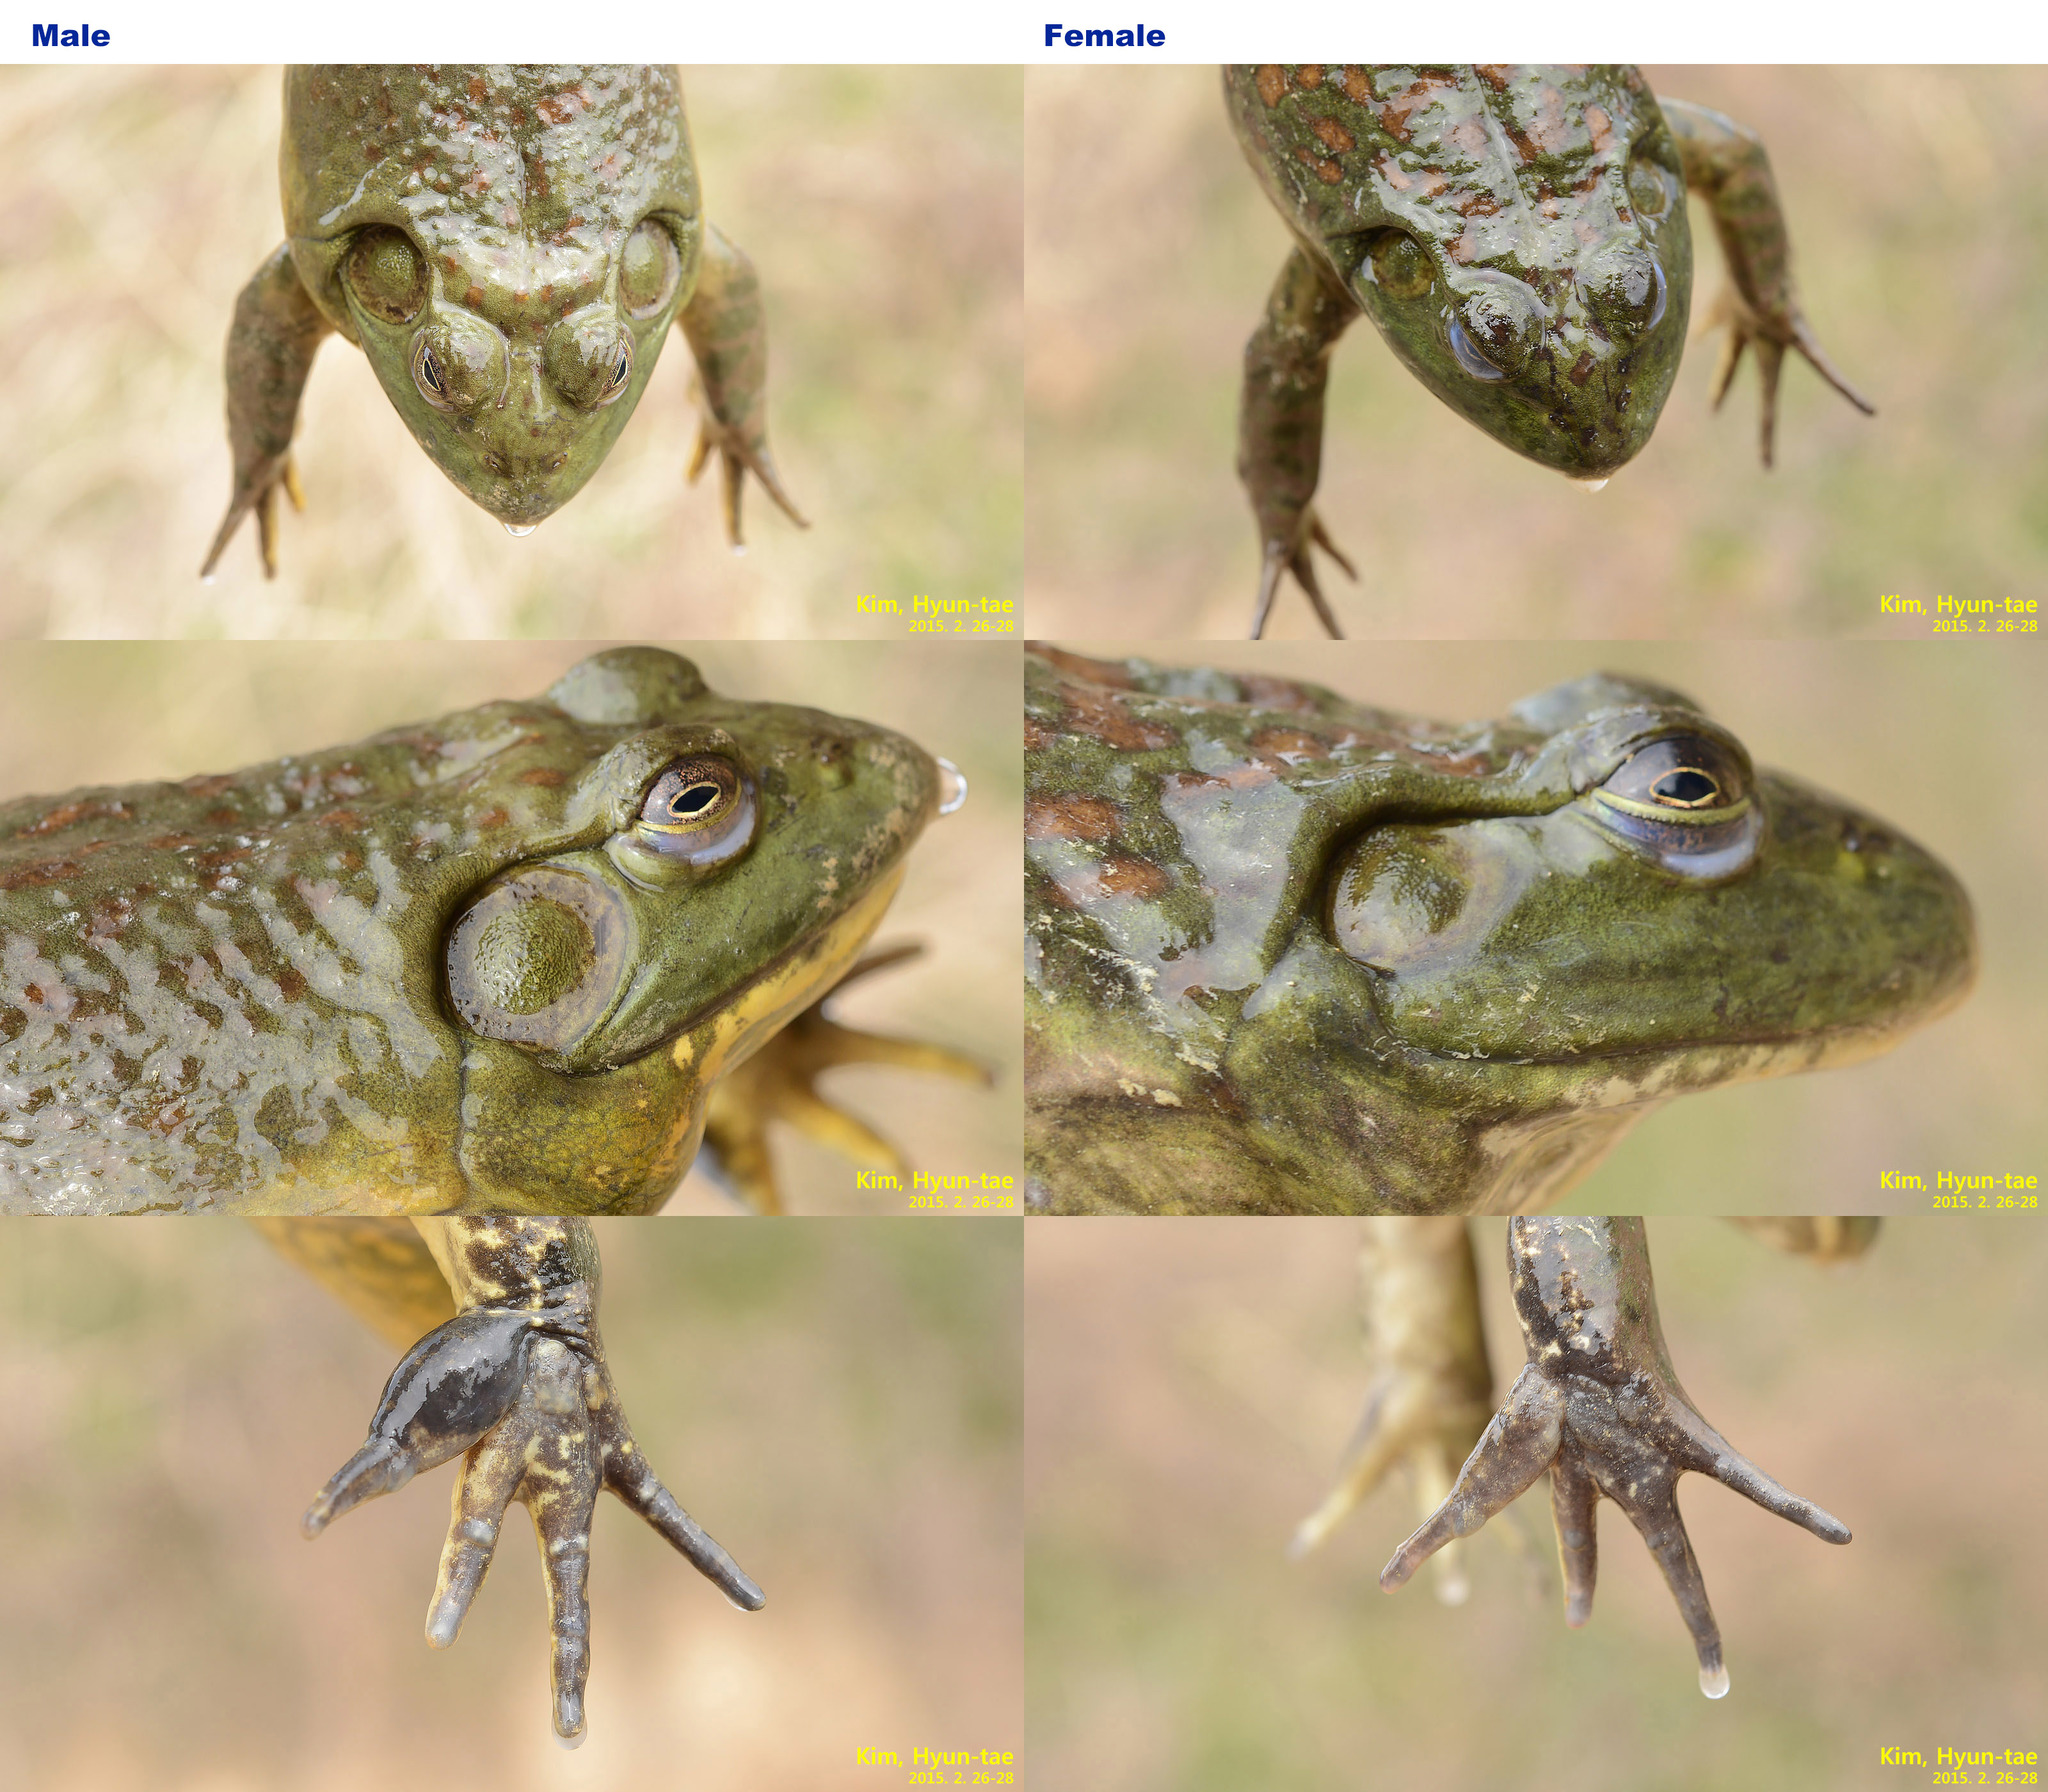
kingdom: Animalia
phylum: Chordata
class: Amphibia
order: Anura
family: Ranidae
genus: Lithobates
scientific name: Lithobates catesbeianus
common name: American bullfrog
